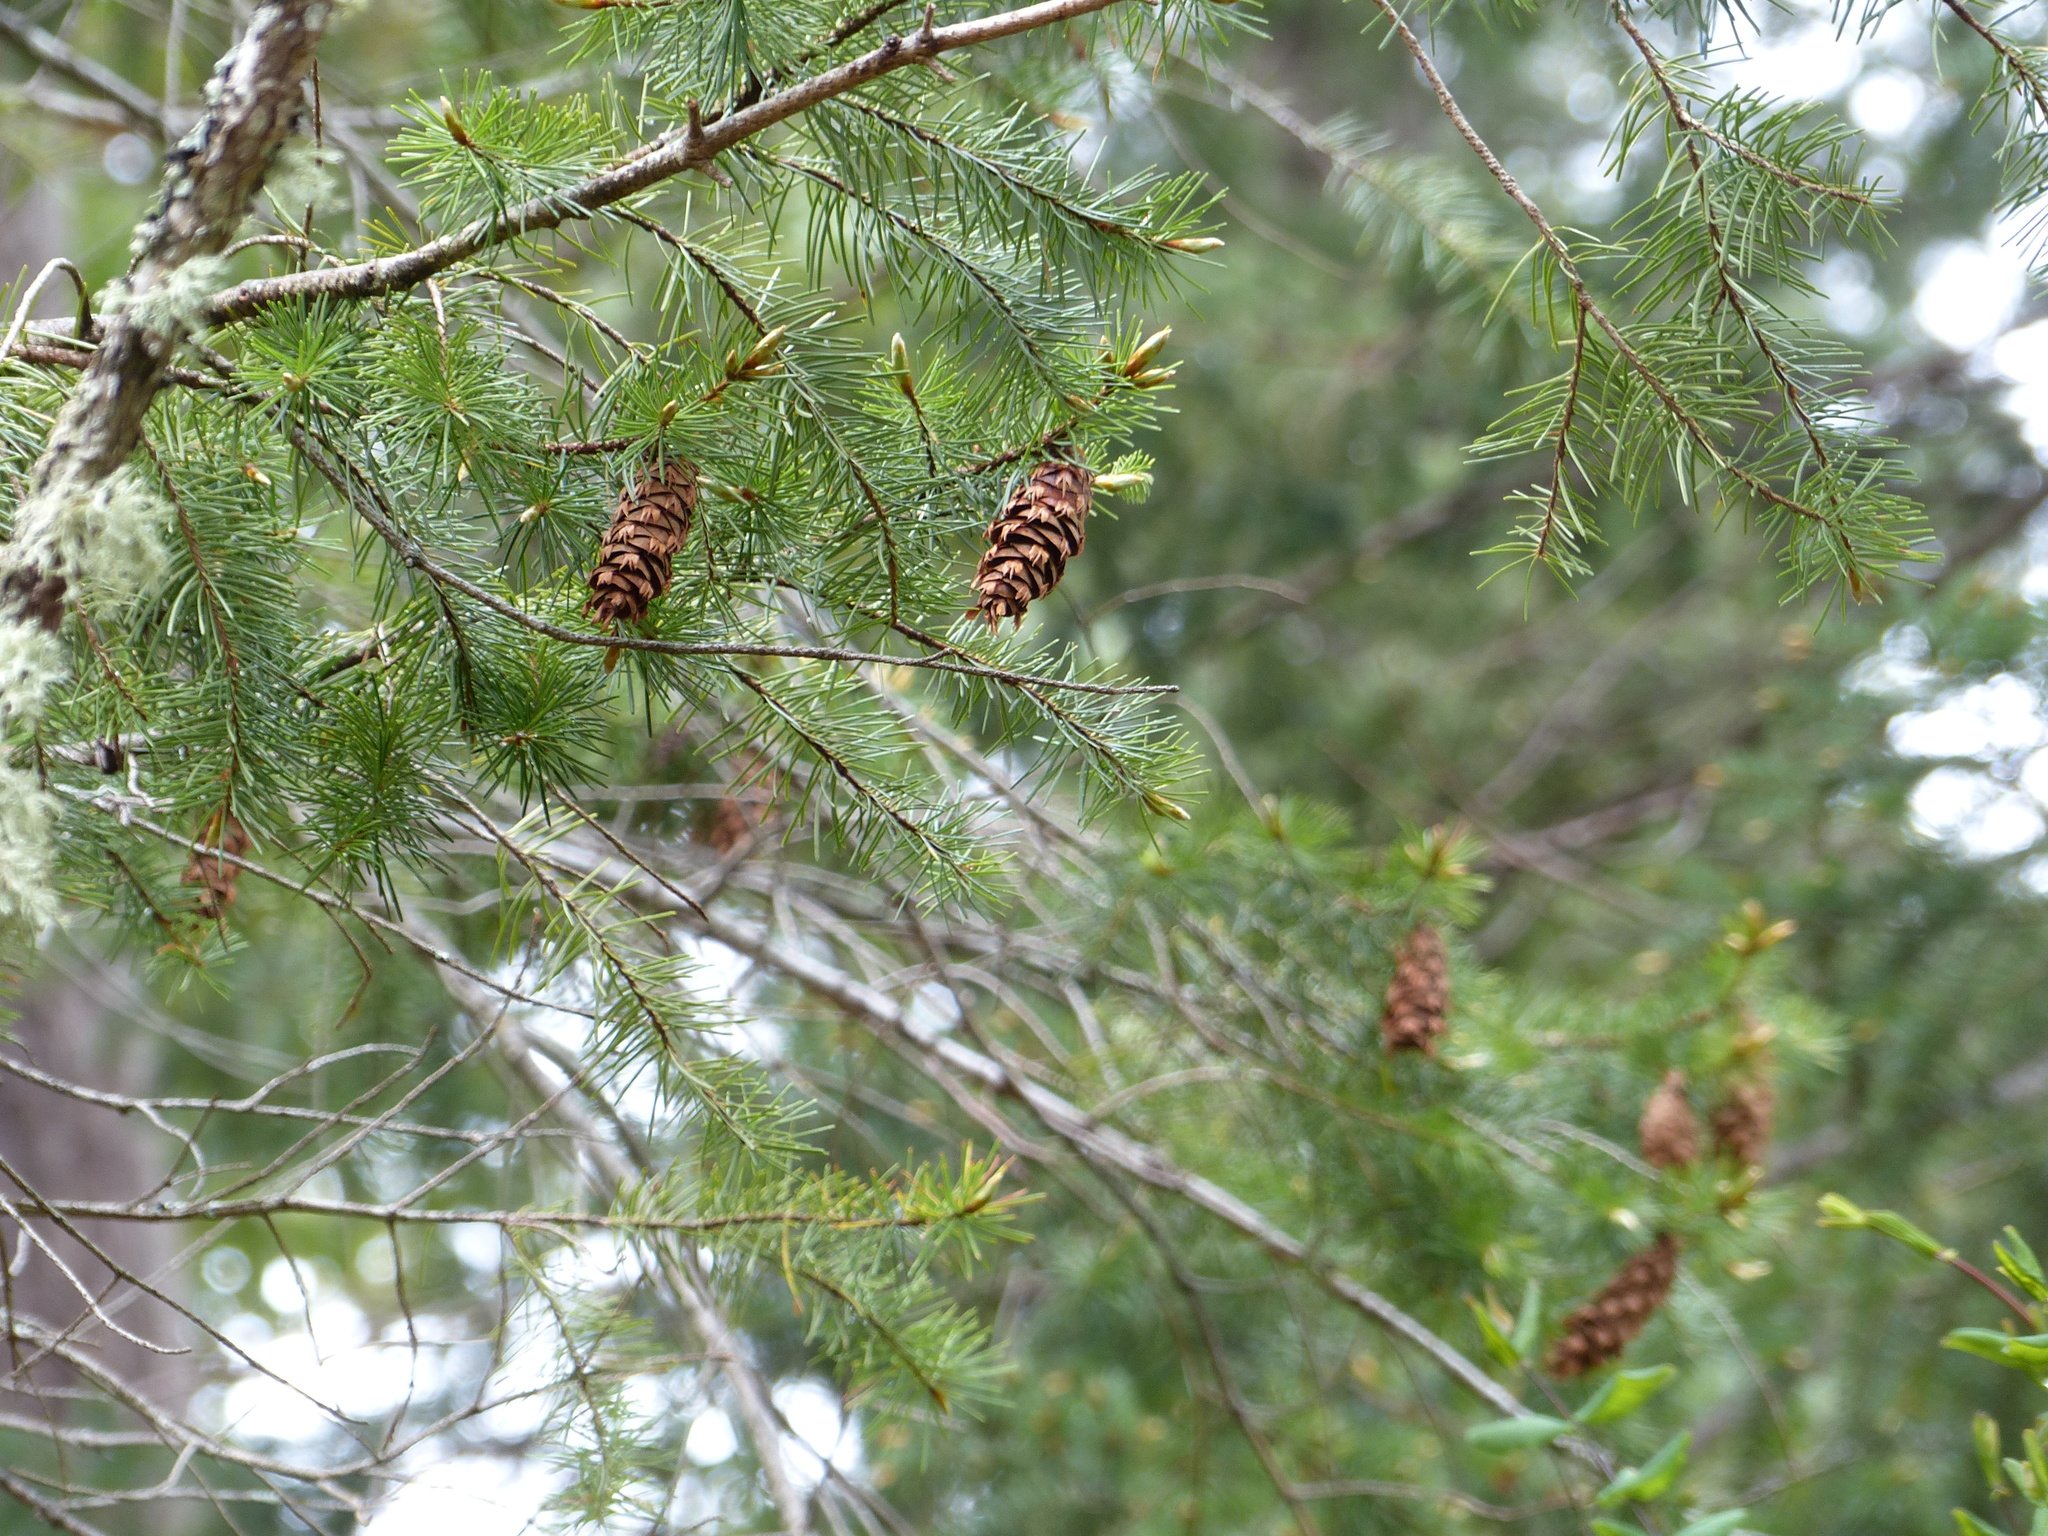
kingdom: Plantae
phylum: Tracheophyta
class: Pinopsida
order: Pinales
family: Pinaceae
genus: Pseudotsuga
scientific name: Pseudotsuga menziesii
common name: Douglas fir
